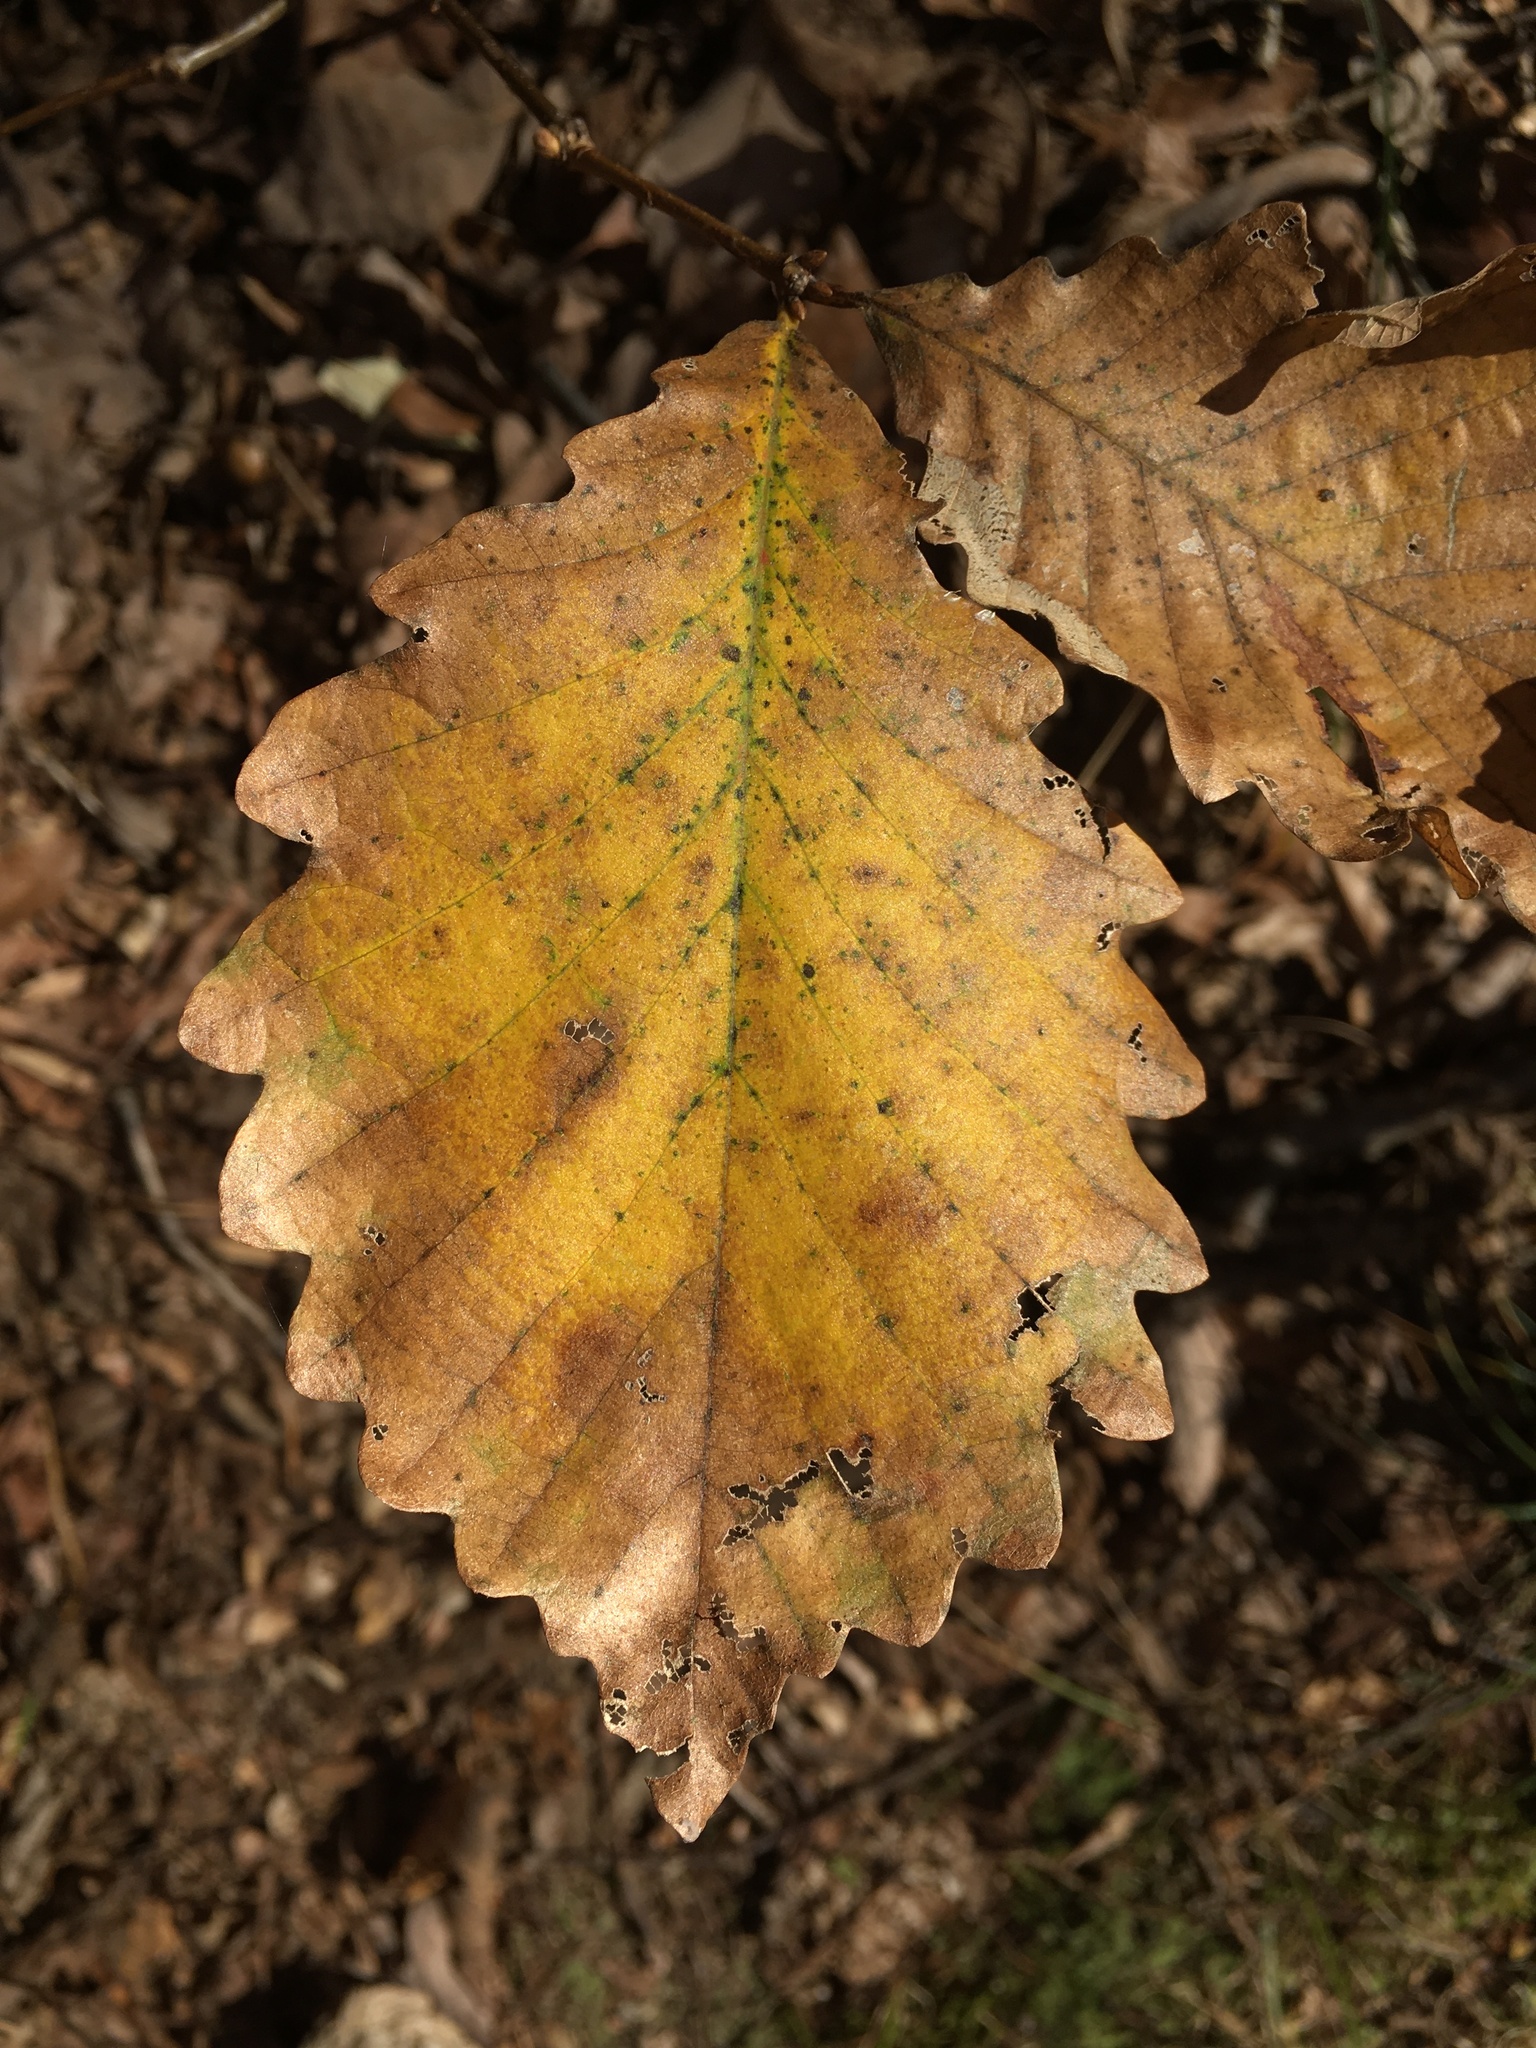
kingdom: Plantae
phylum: Tracheophyta
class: Magnoliopsida
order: Fagales
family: Fagaceae
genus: Quercus
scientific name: Quercus montana
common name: Chestnut oak
